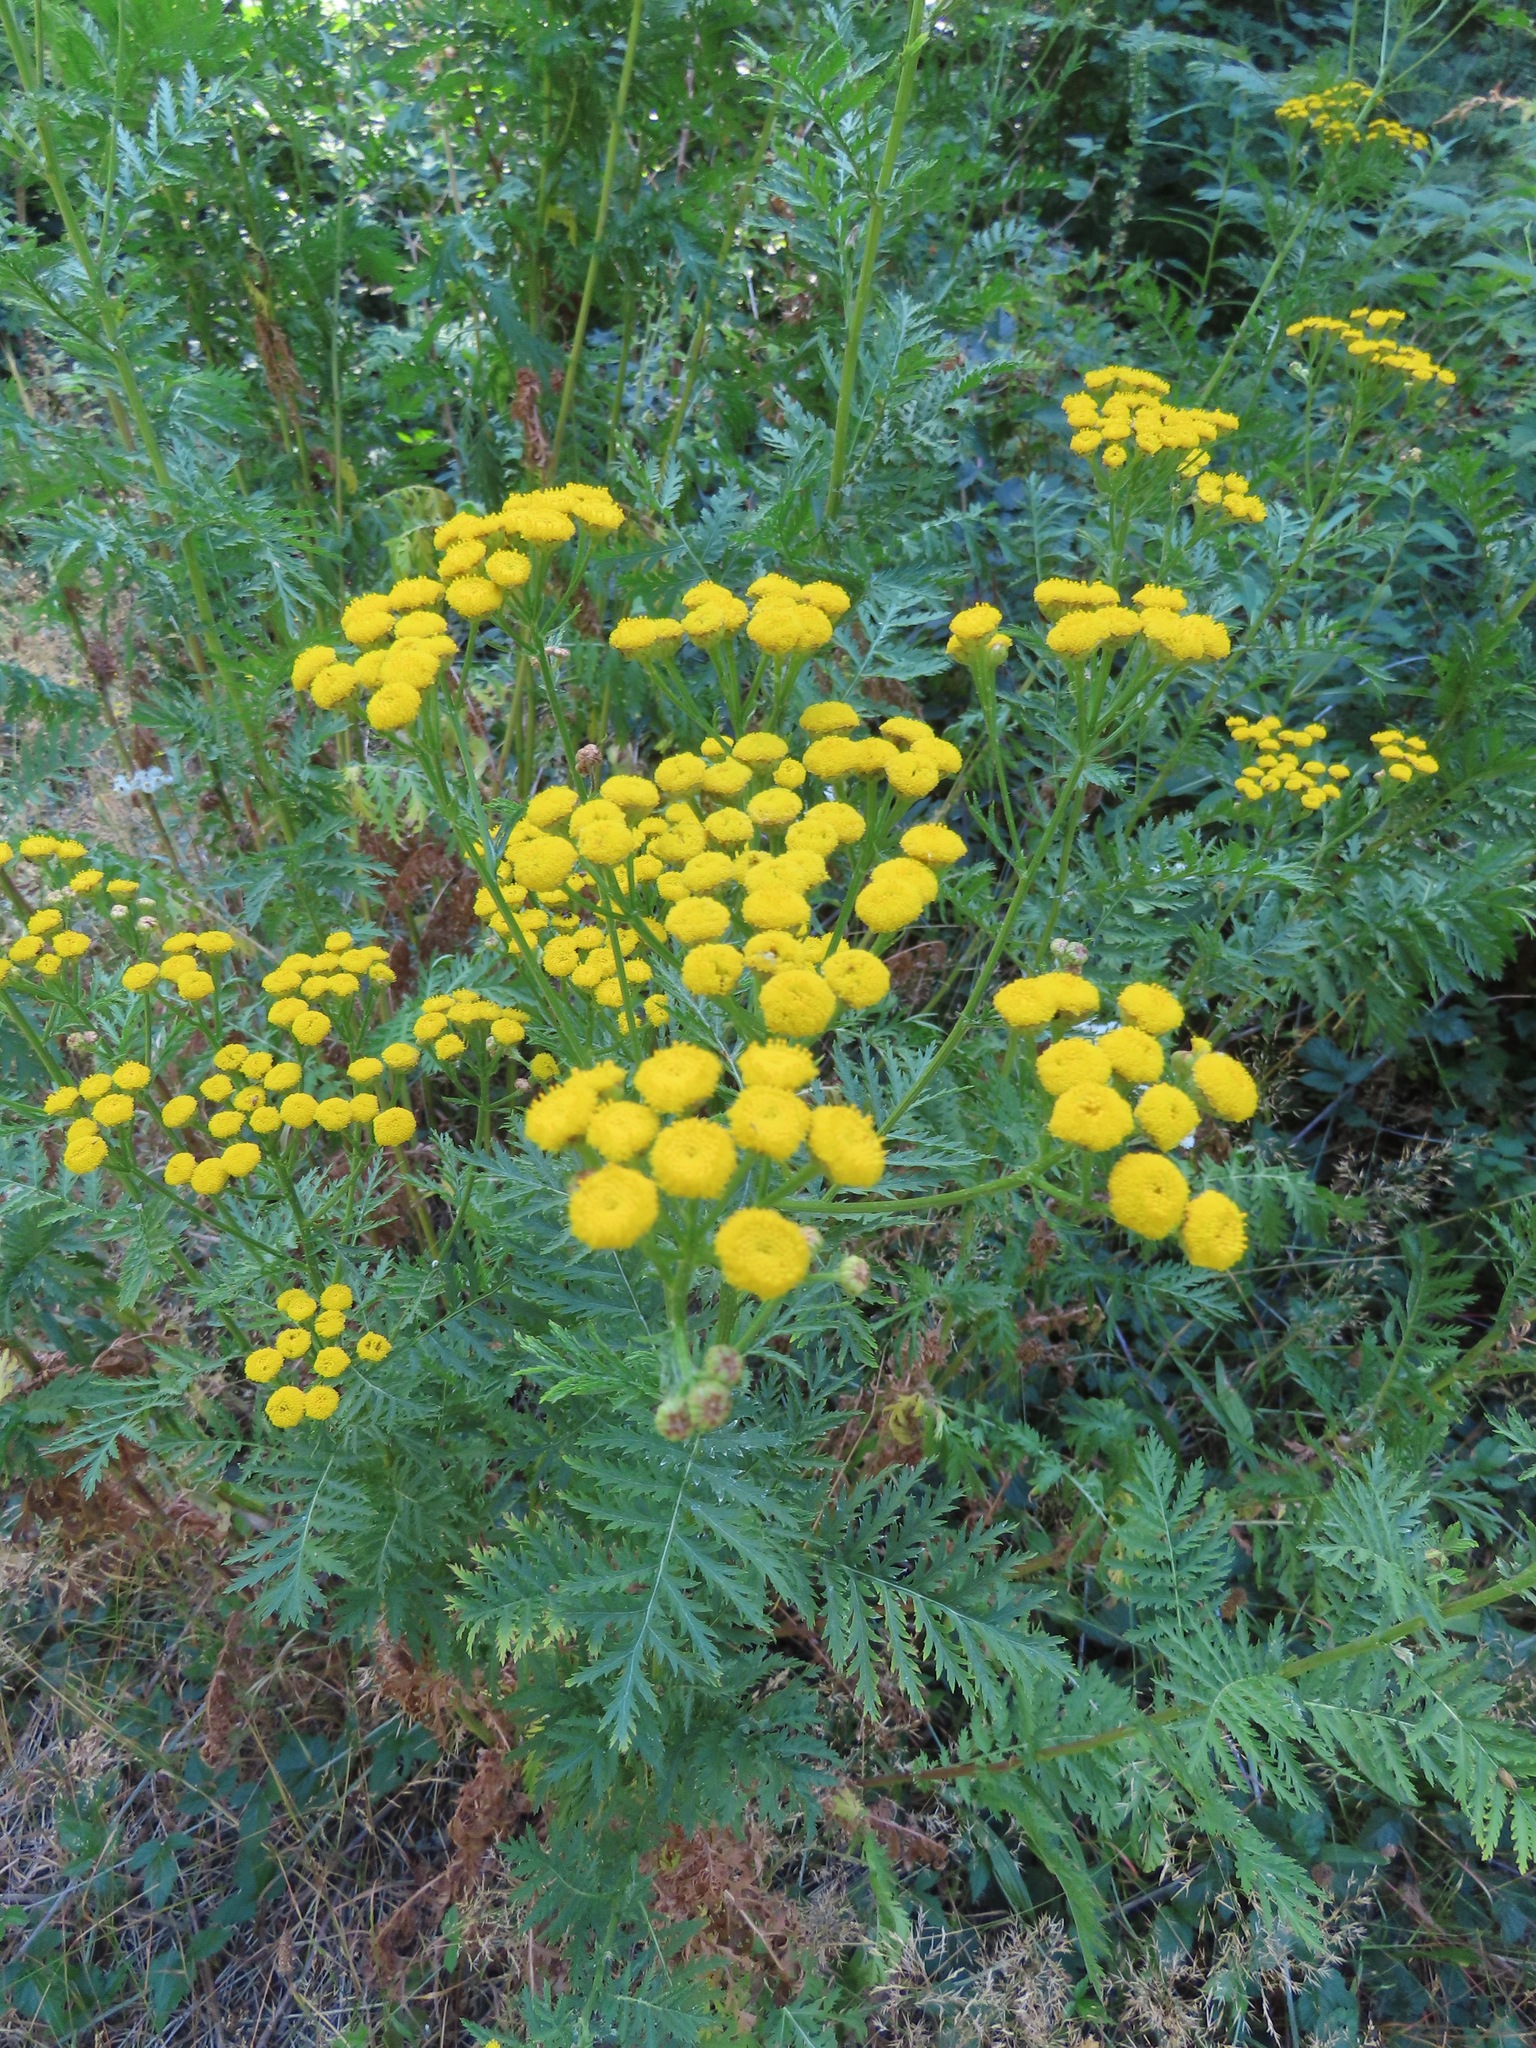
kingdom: Plantae
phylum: Tracheophyta
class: Magnoliopsida
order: Asterales
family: Asteraceae
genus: Tanacetum
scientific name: Tanacetum vulgare
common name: Common tansy
